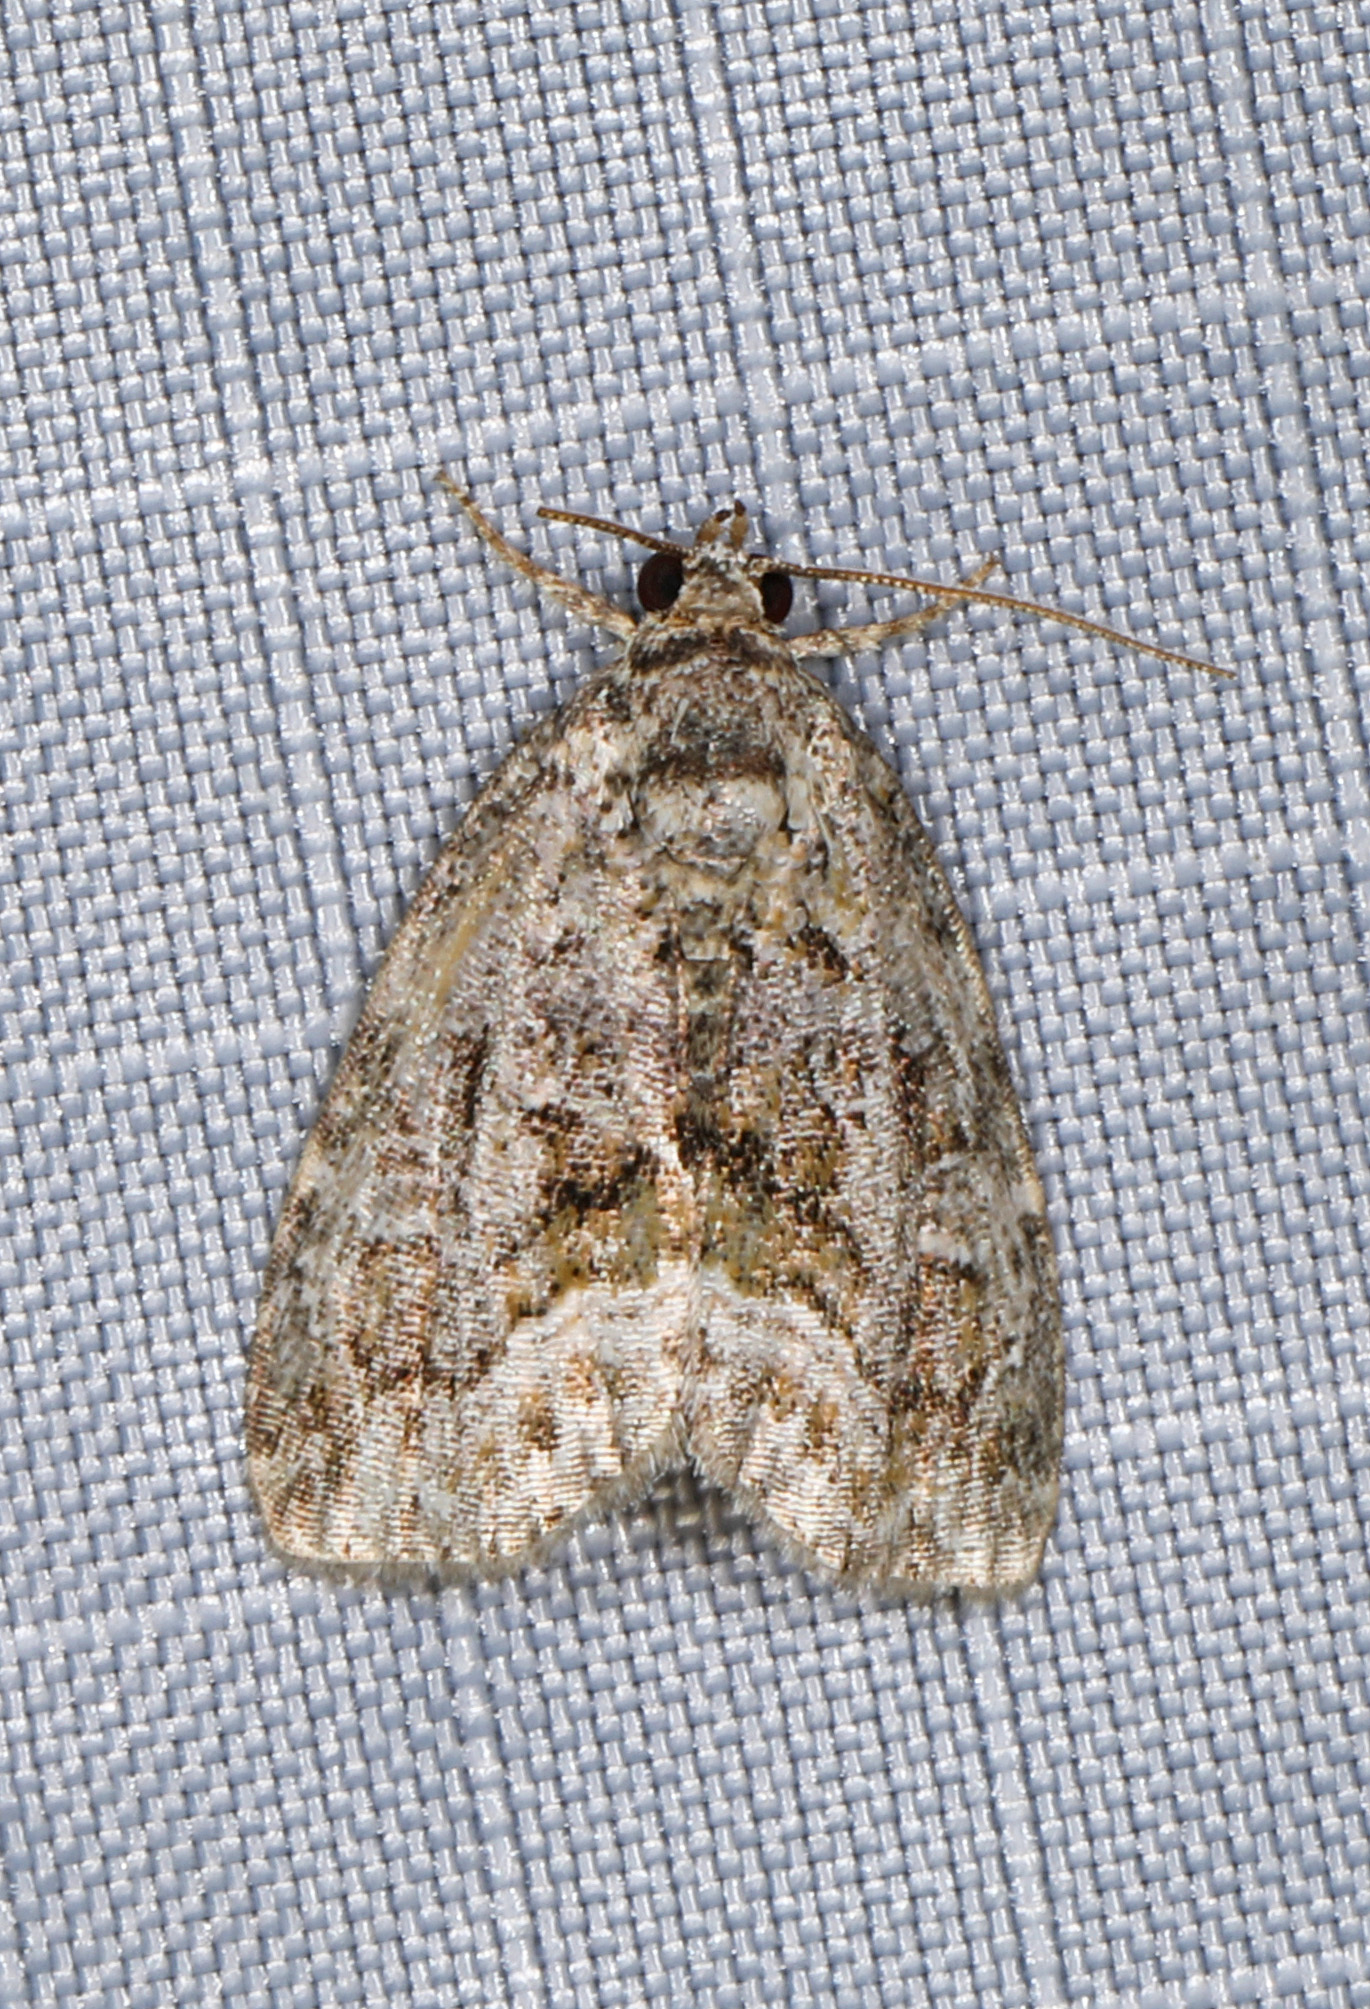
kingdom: Animalia
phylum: Arthropoda
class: Insecta
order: Lepidoptera
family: Noctuidae
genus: Protodeltote
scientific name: Protodeltote muscosula
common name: Large mossy glyph
